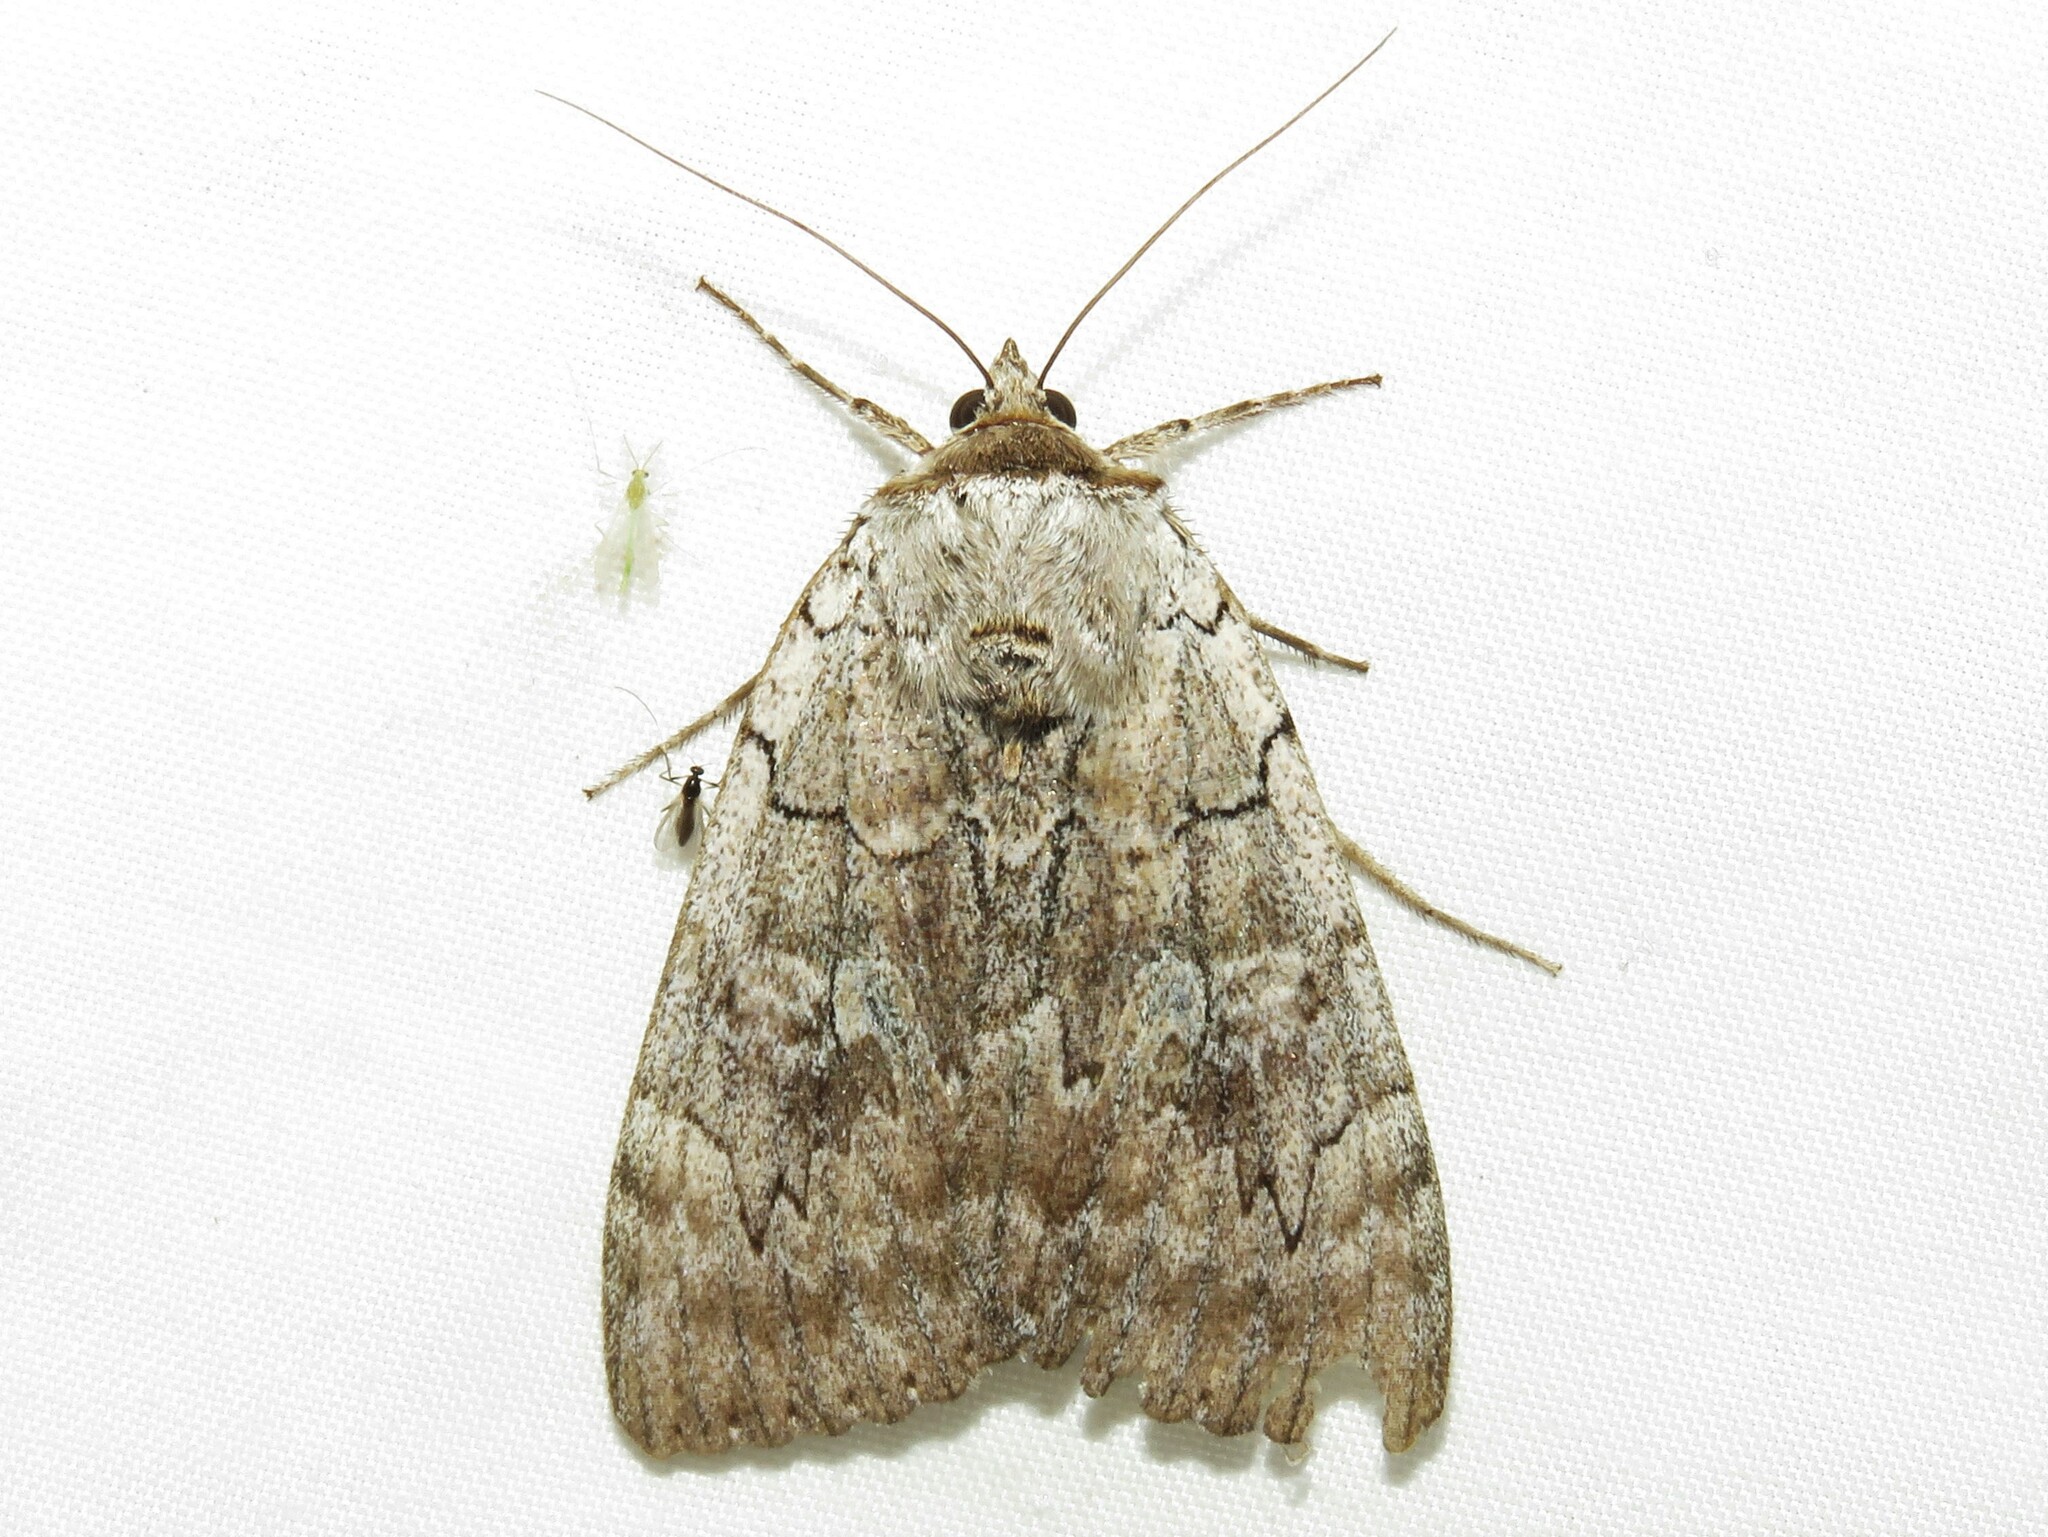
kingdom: Animalia
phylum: Arthropoda
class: Insecta
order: Lepidoptera
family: Erebidae
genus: Catocala
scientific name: Catocala concumbens
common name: Pink underwing
